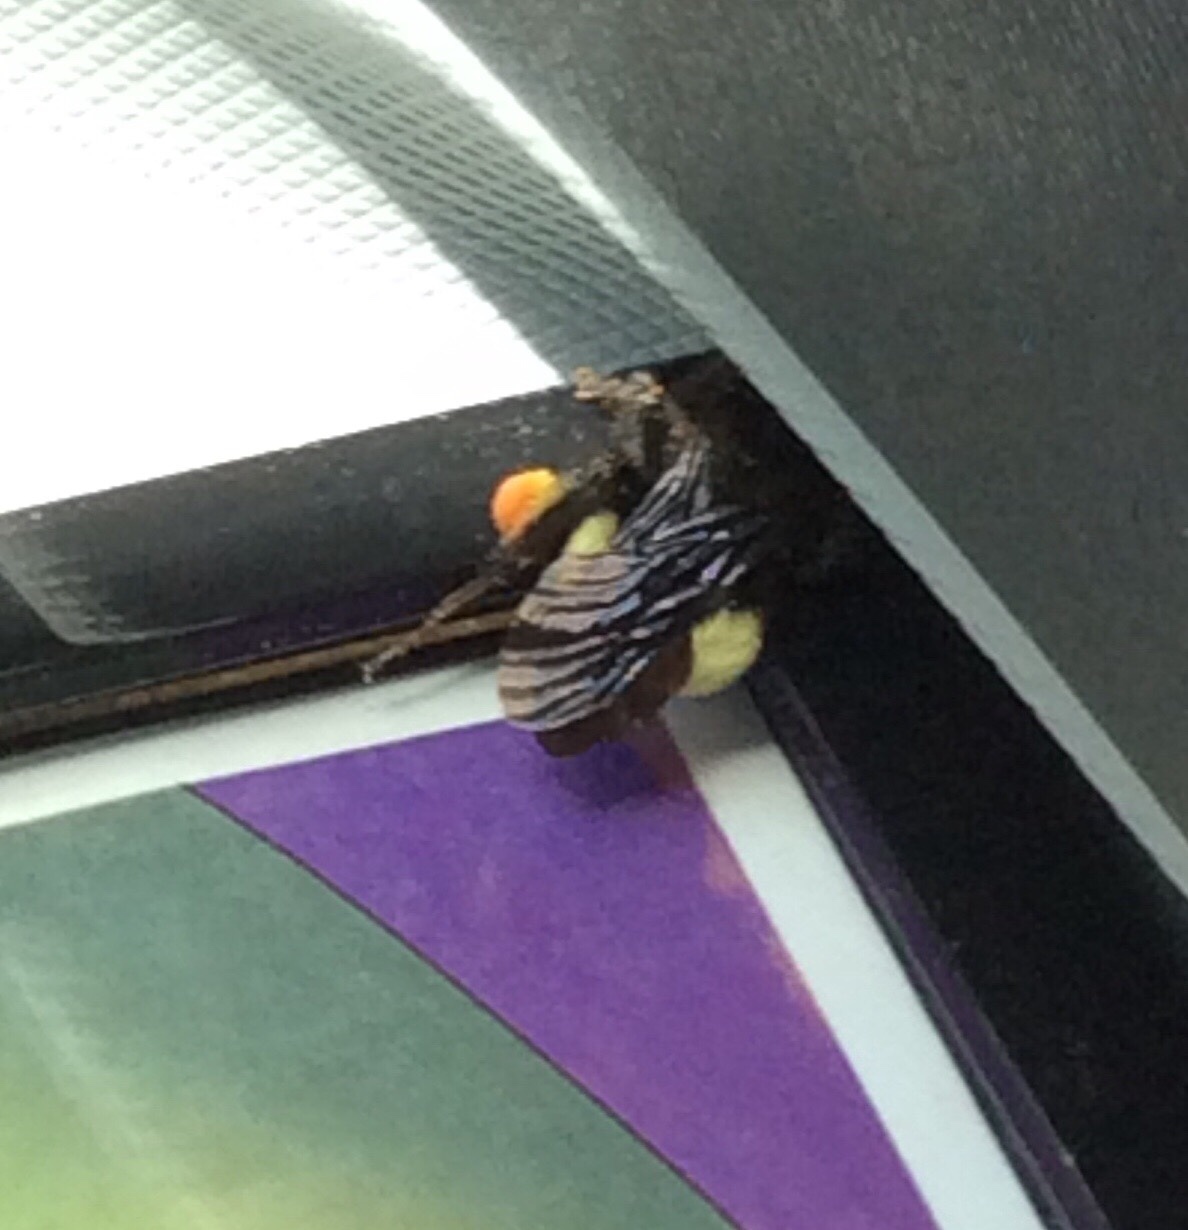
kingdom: Animalia
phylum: Arthropoda
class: Insecta
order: Hymenoptera
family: Apidae
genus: Bombus
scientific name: Bombus pensylvanicus
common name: Bumble bee
